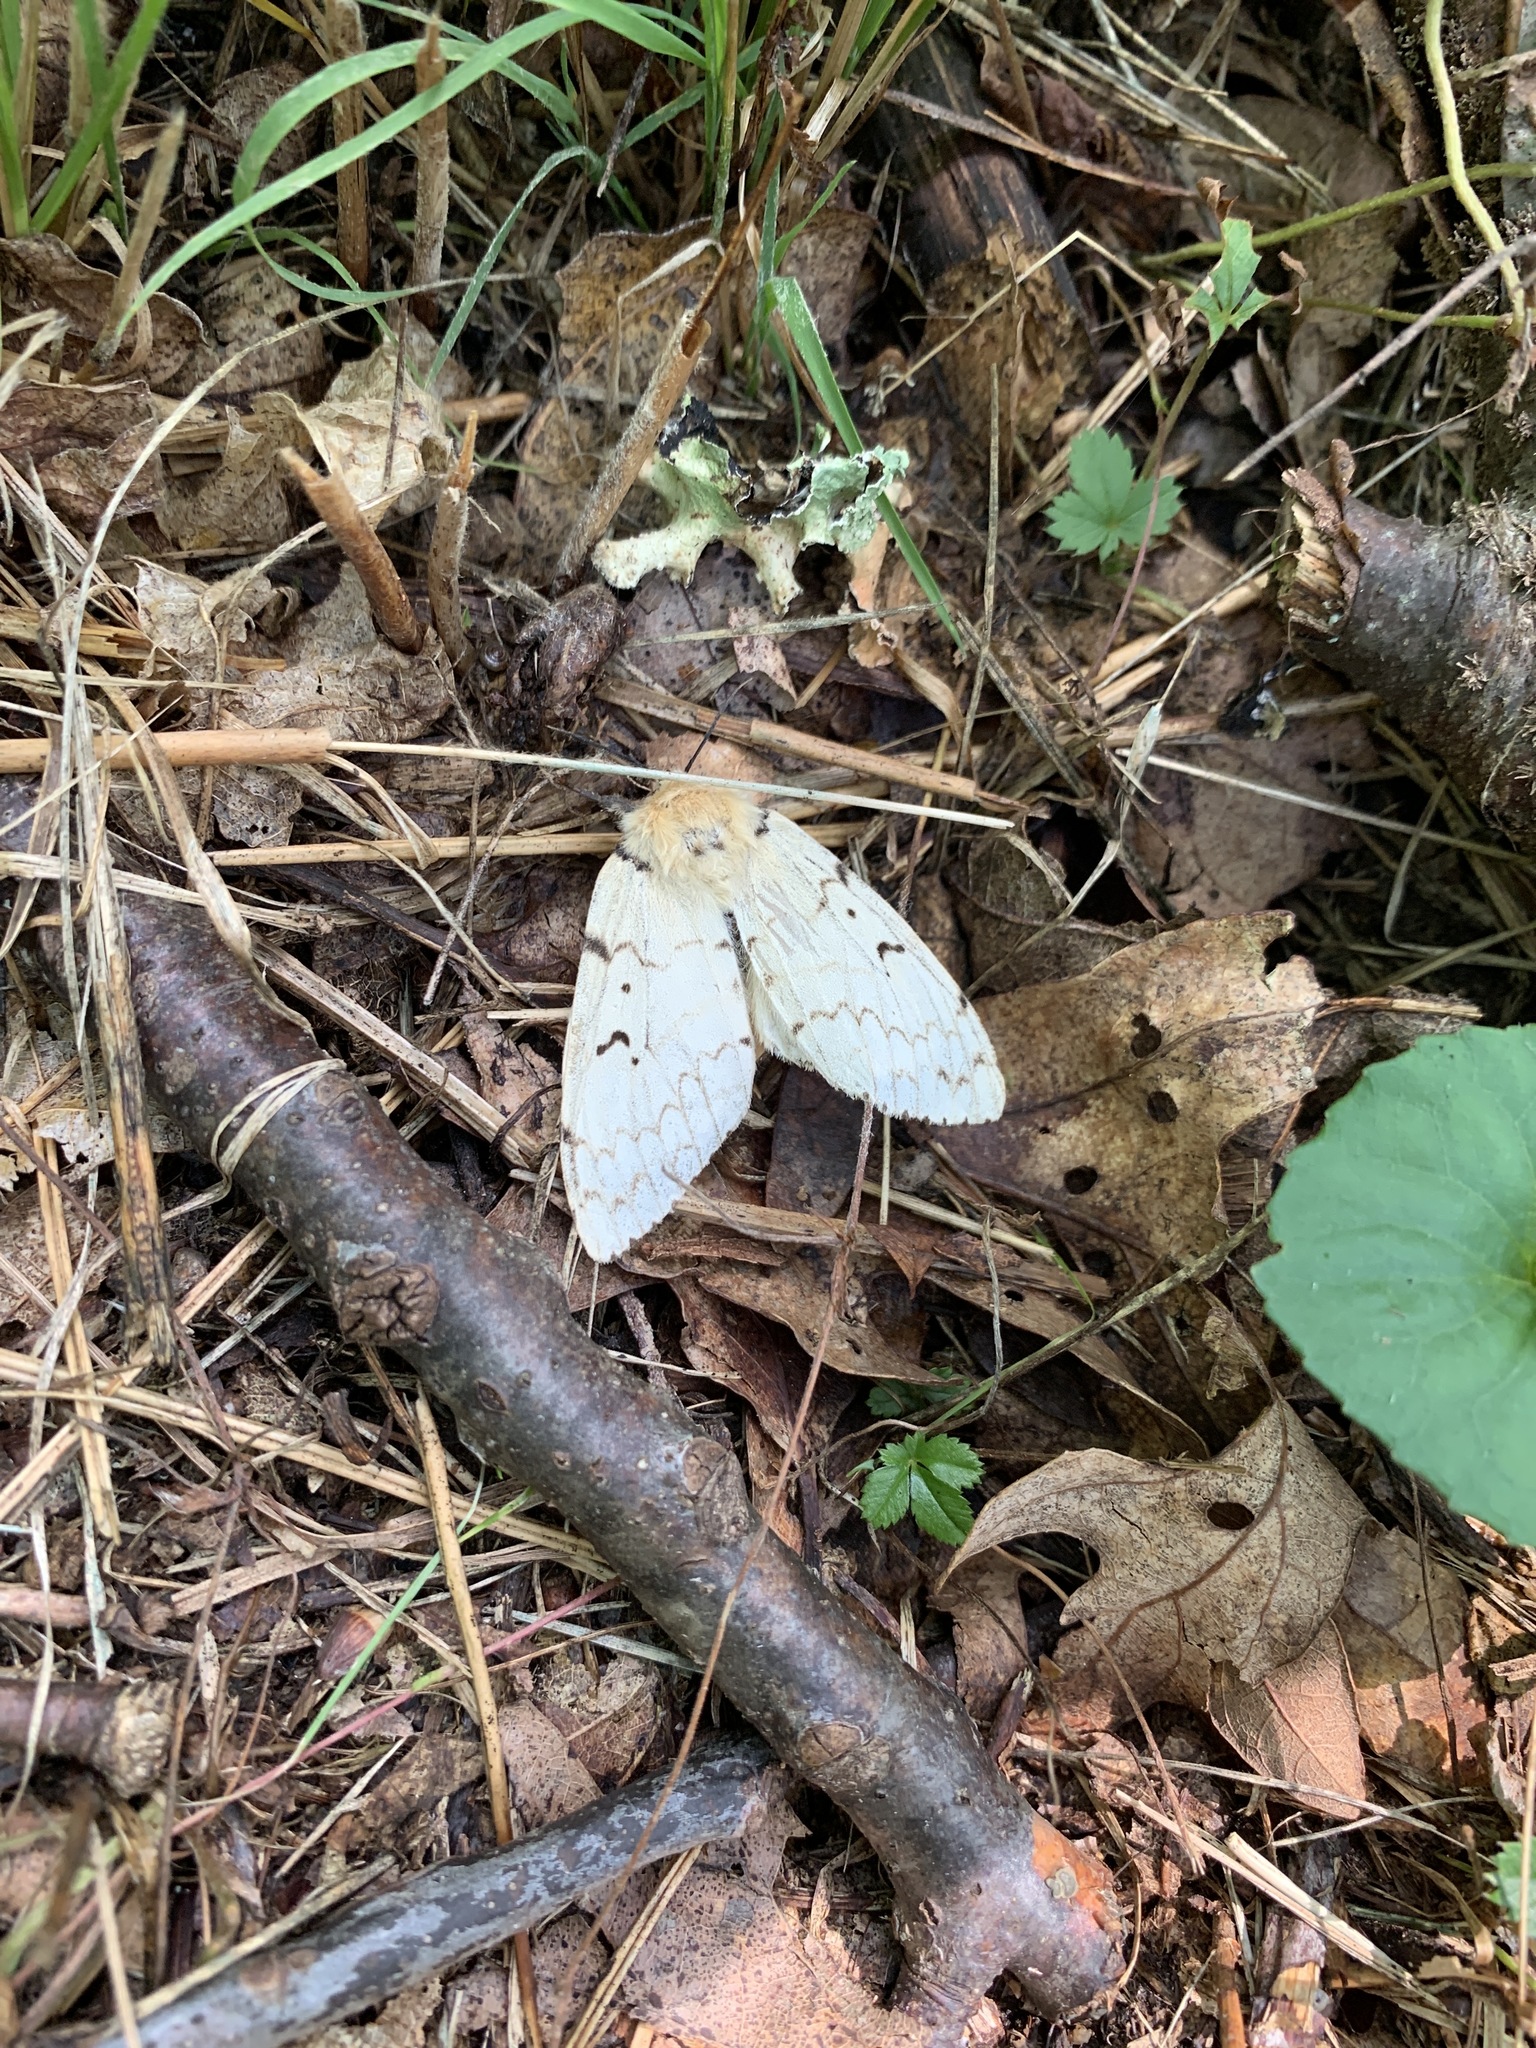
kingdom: Animalia
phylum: Arthropoda
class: Insecta
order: Lepidoptera
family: Erebidae
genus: Lymantria
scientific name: Lymantria dispar
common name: Gypsy moth
